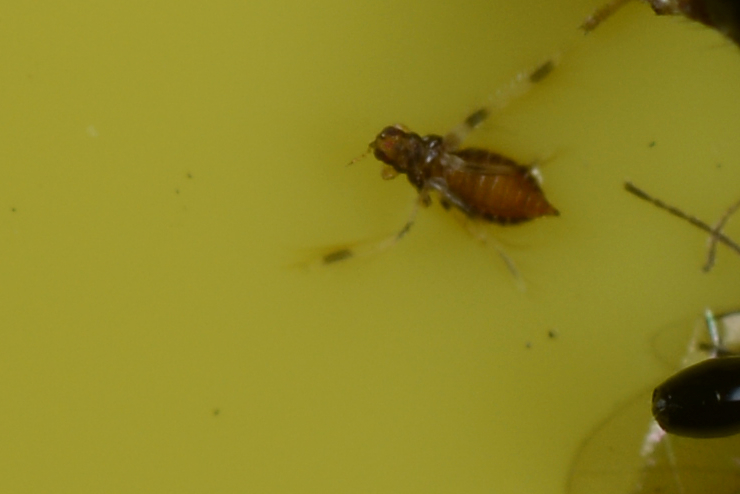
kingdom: Animalia
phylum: Arthropoda
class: Insecta
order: Thysanoptera
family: Thripidae
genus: Hercinothrips
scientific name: Hercinothrips bicinctus
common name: Thrip
